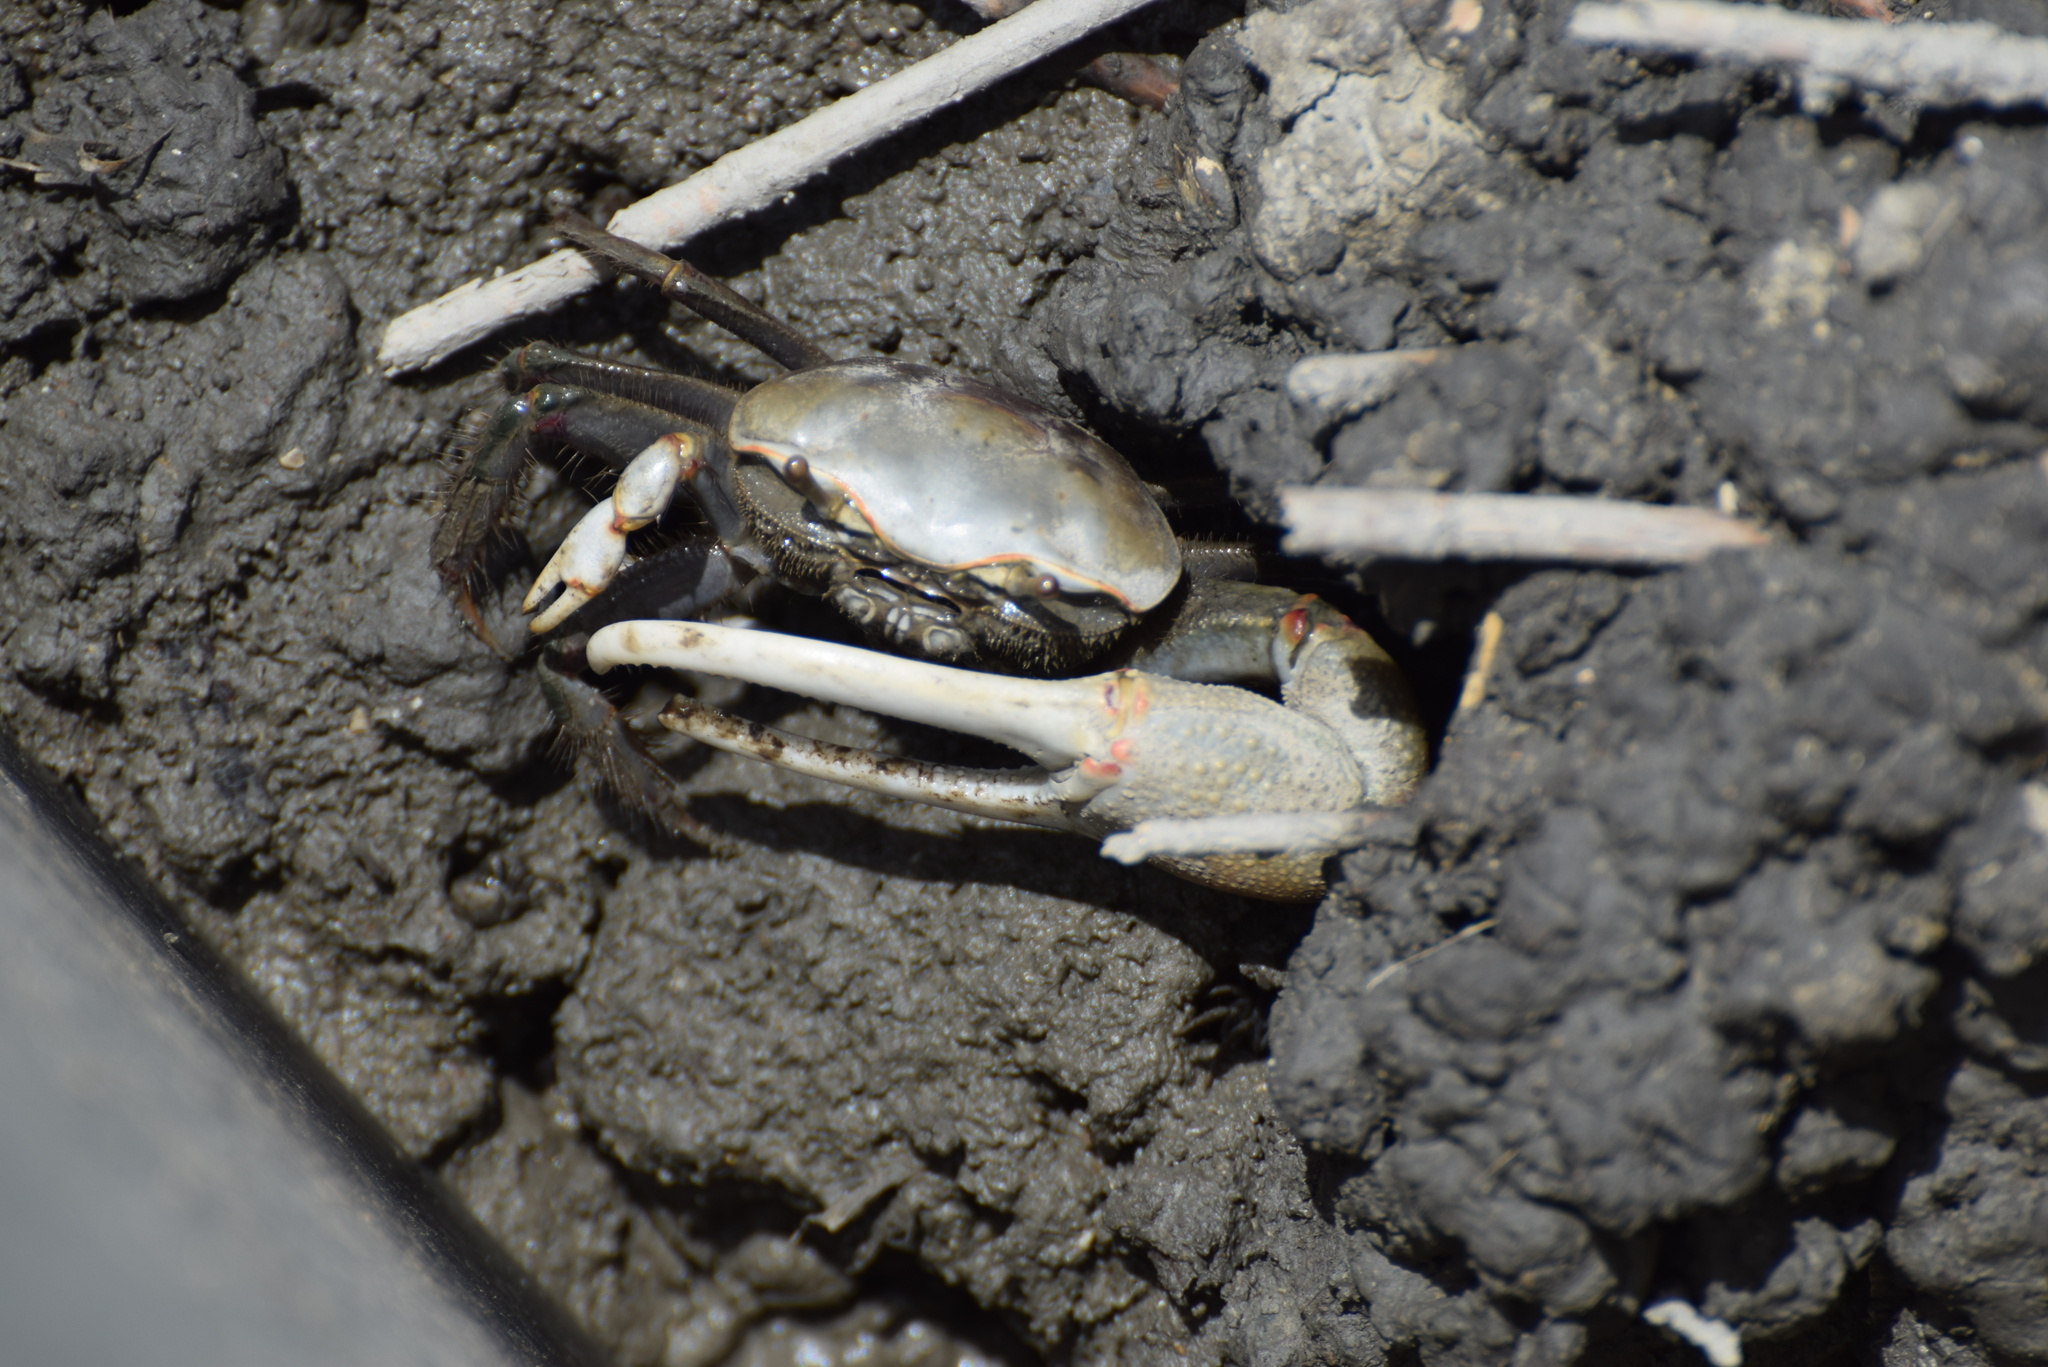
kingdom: Animalia
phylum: Arthropoda
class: Malacostraca
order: Decapoda
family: Ocypodidae
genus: Minuca
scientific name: Minuca minax
